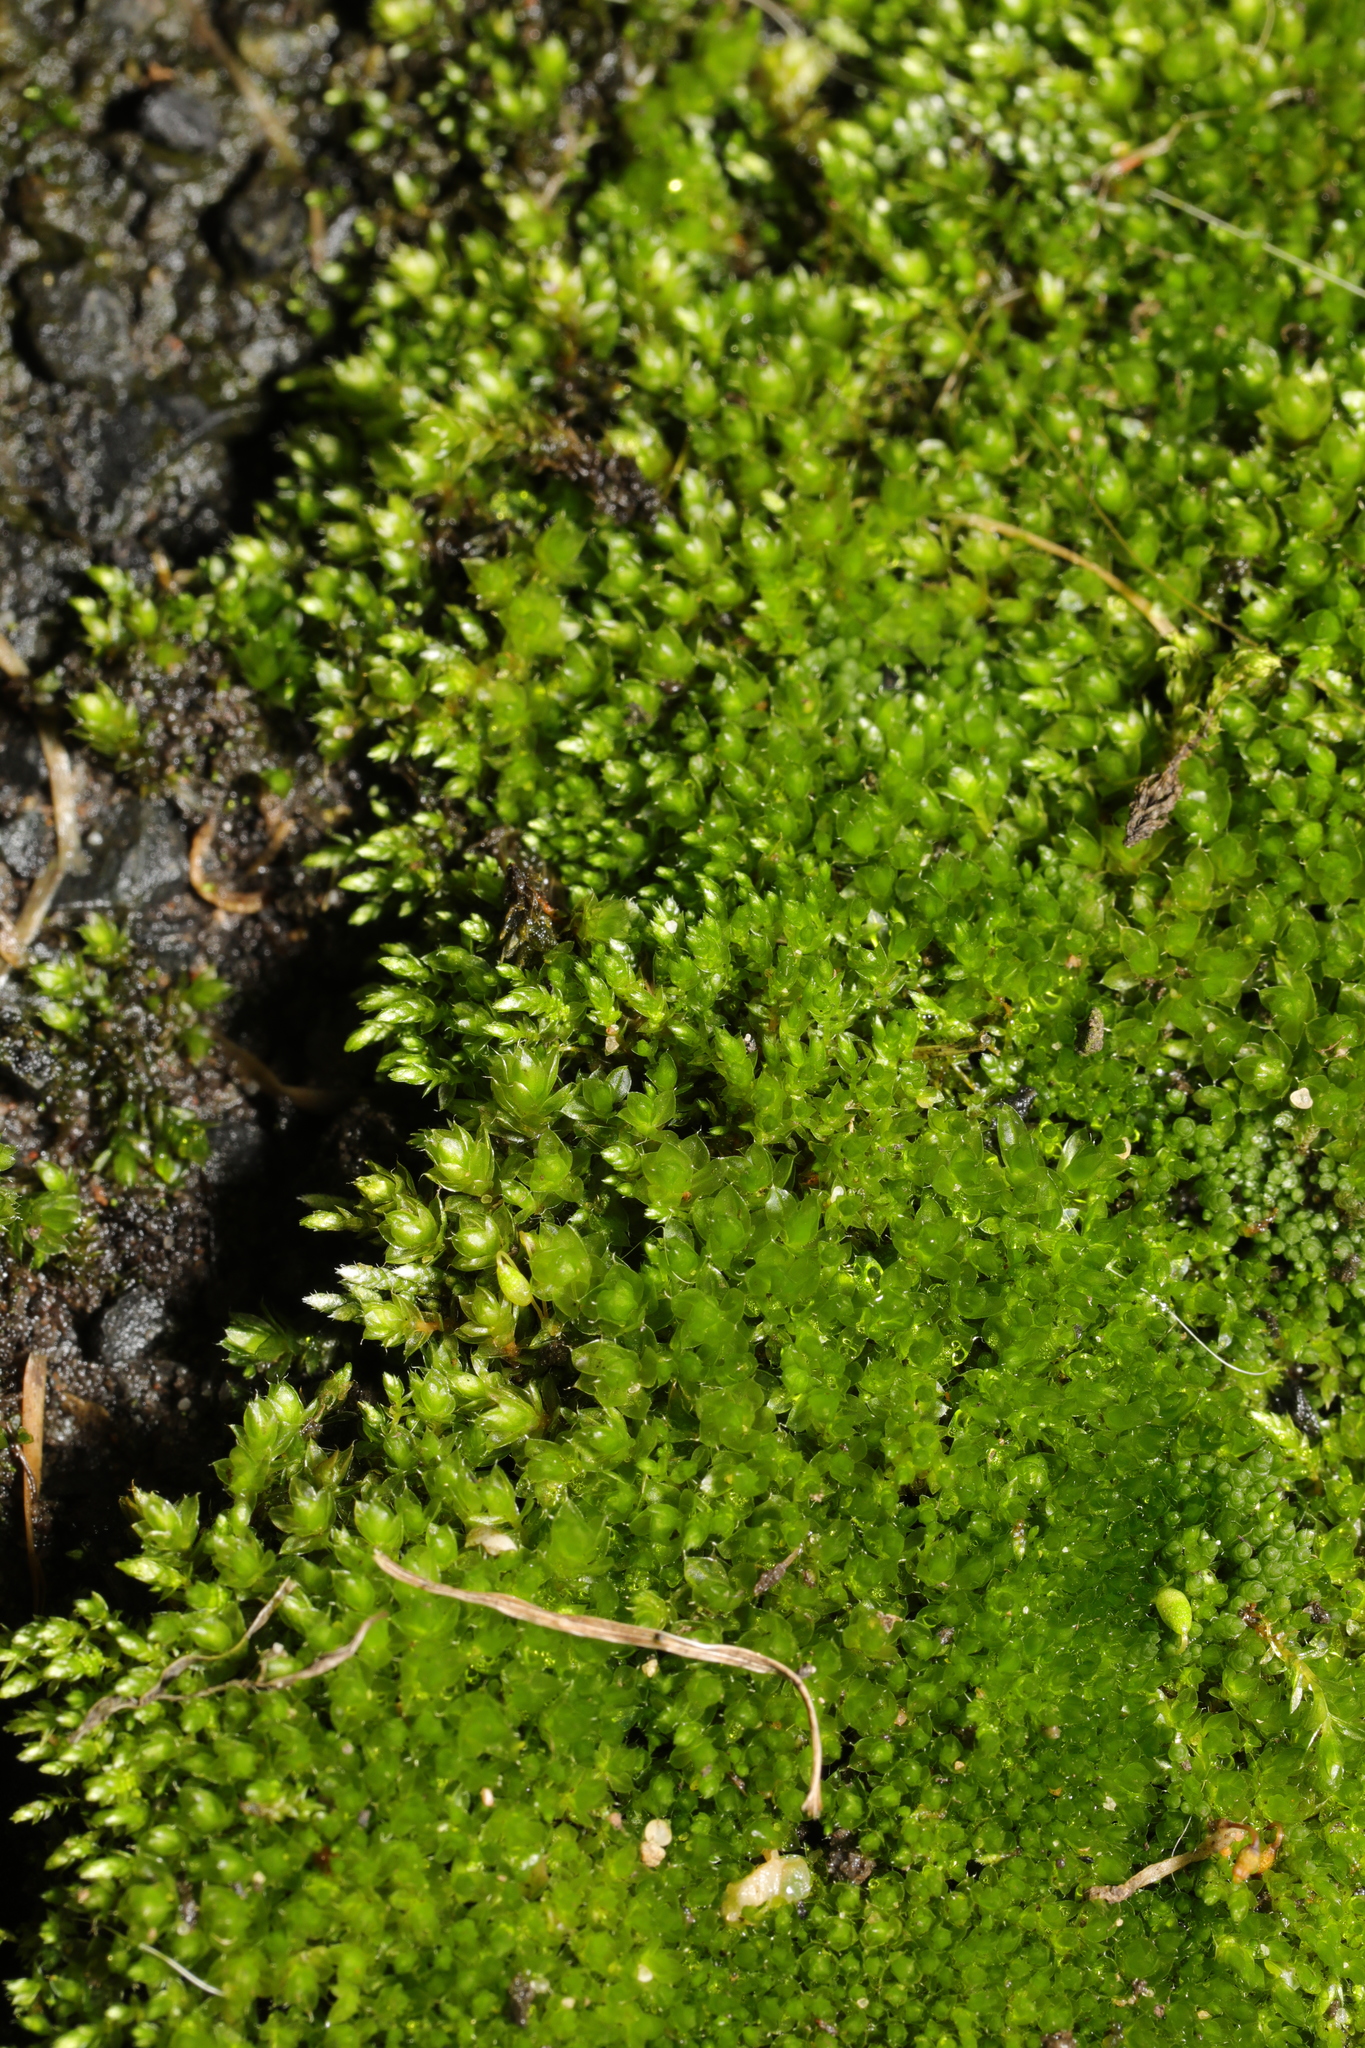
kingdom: Plantae
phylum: Bryophyta
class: Bryopsida
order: Bryales
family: Bryaceae
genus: Rosulabryum
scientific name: Rosulabryum capillare
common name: Capillary thread-moss
